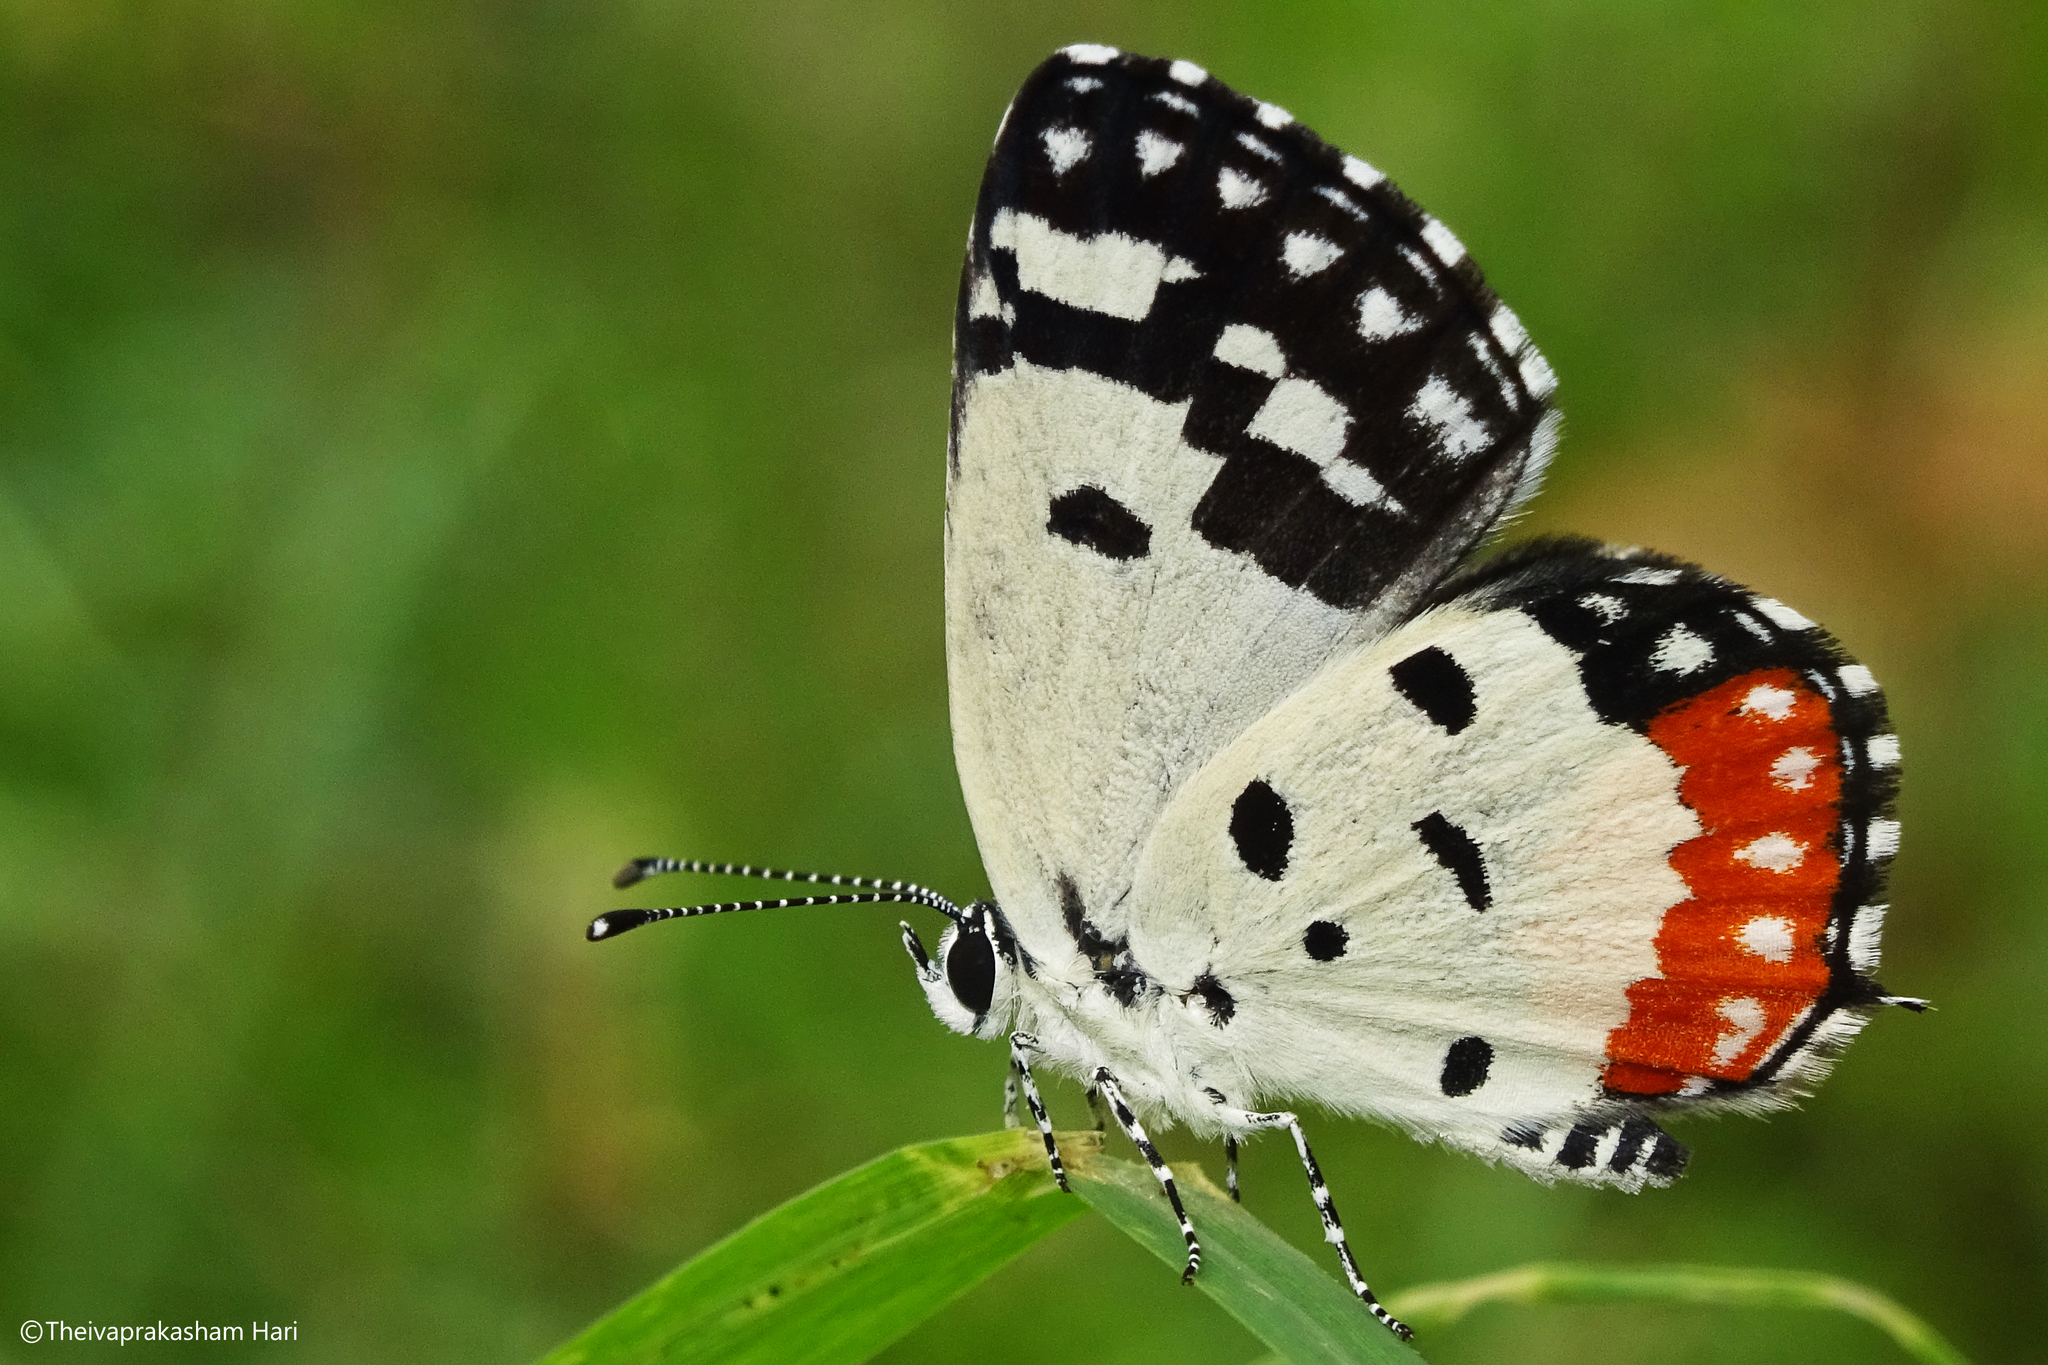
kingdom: Animalia
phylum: Arthropoda
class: Insecta
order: Lepidoptera
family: Lycaenidae
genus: Talicada
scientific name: Talicada nyseus
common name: Red pierrot
